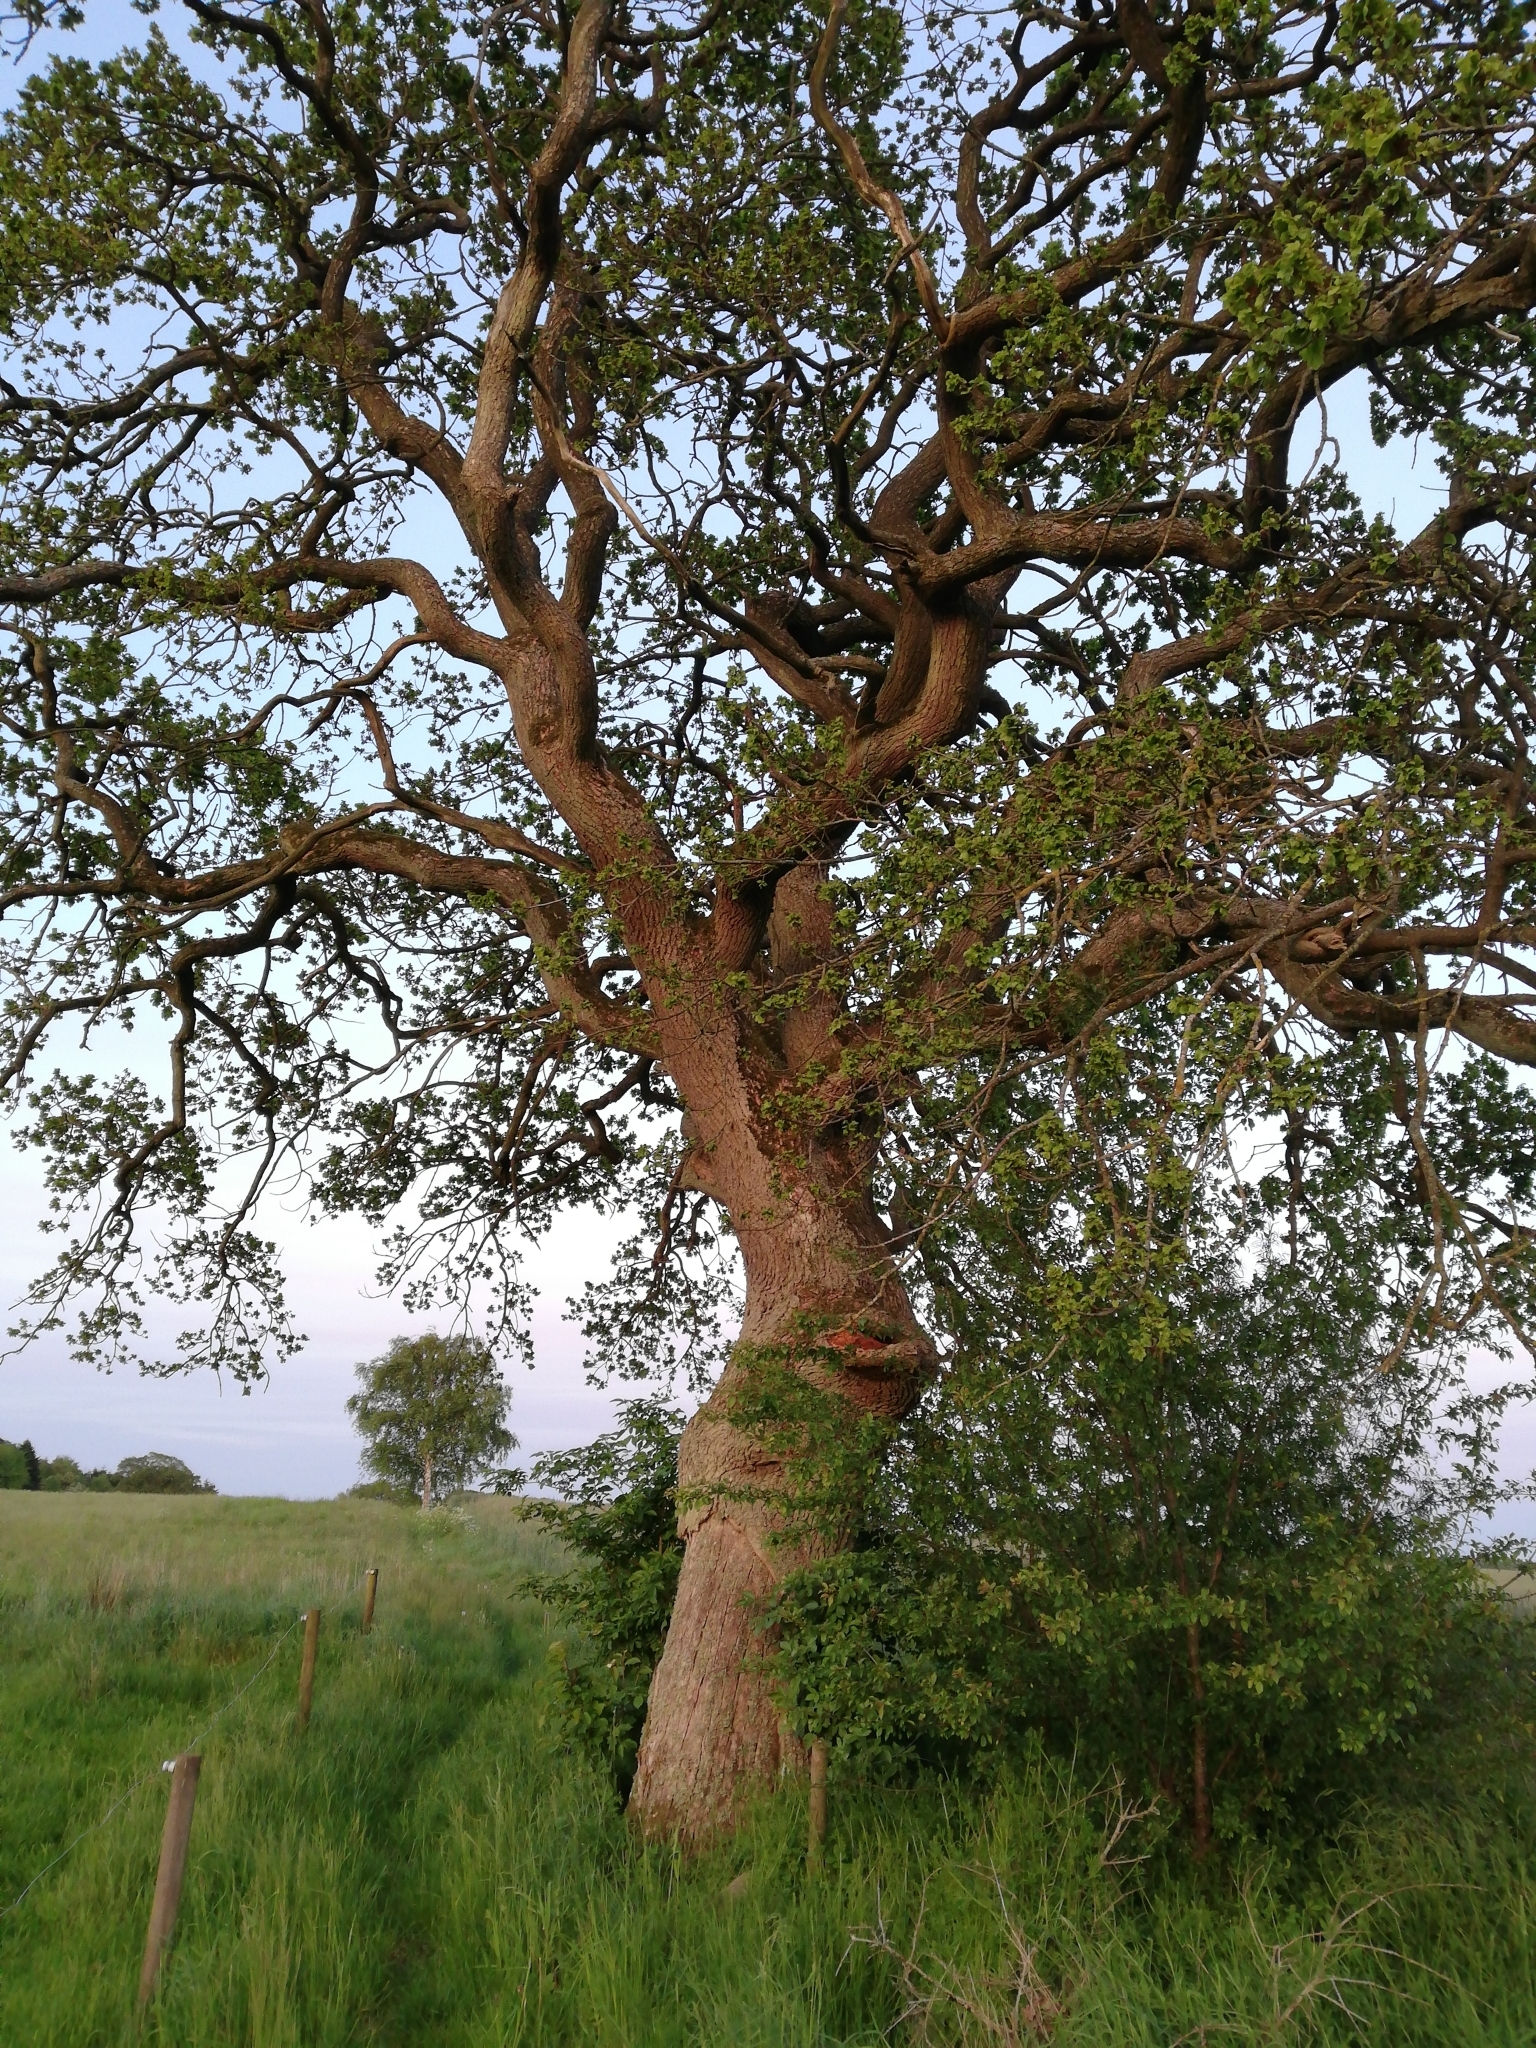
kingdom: Plantae
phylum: Tracheophyta
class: Magnoliopsida
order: Fagales
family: Fagaceae
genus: Quercus
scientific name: Quercus robur
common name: Pedunculate oak
